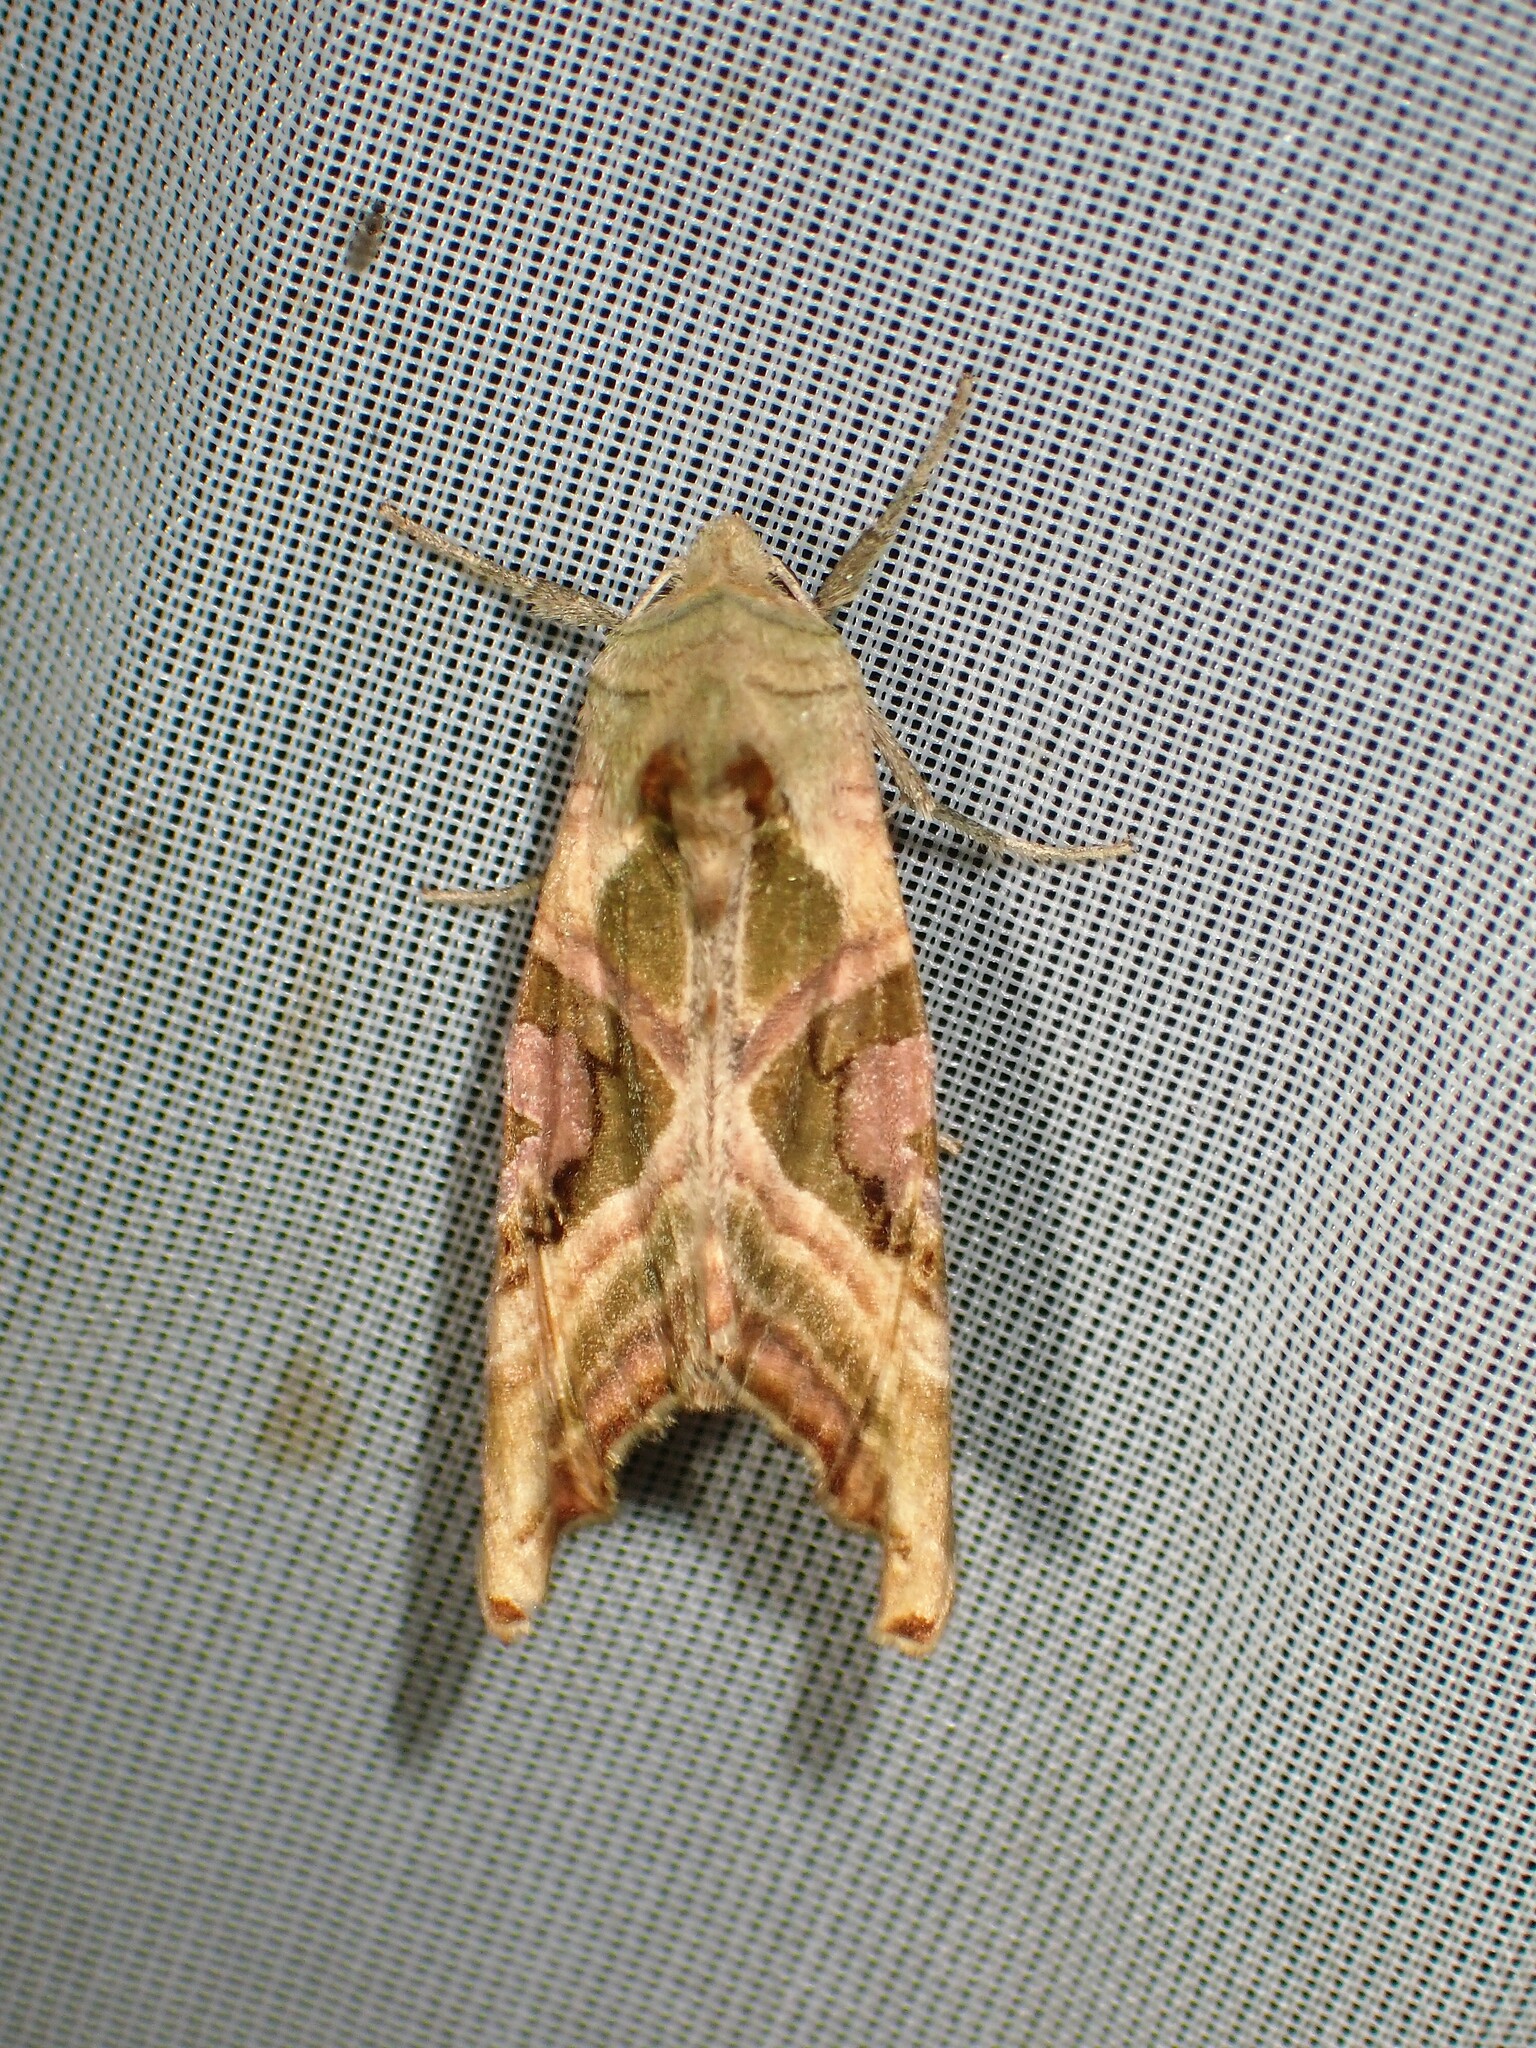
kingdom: Animalia
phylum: Arthropoda
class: Insecta
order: Lepidoptera
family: Noctuidae
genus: Phlogophora
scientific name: Phlogophora iris
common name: Olive angle shades
